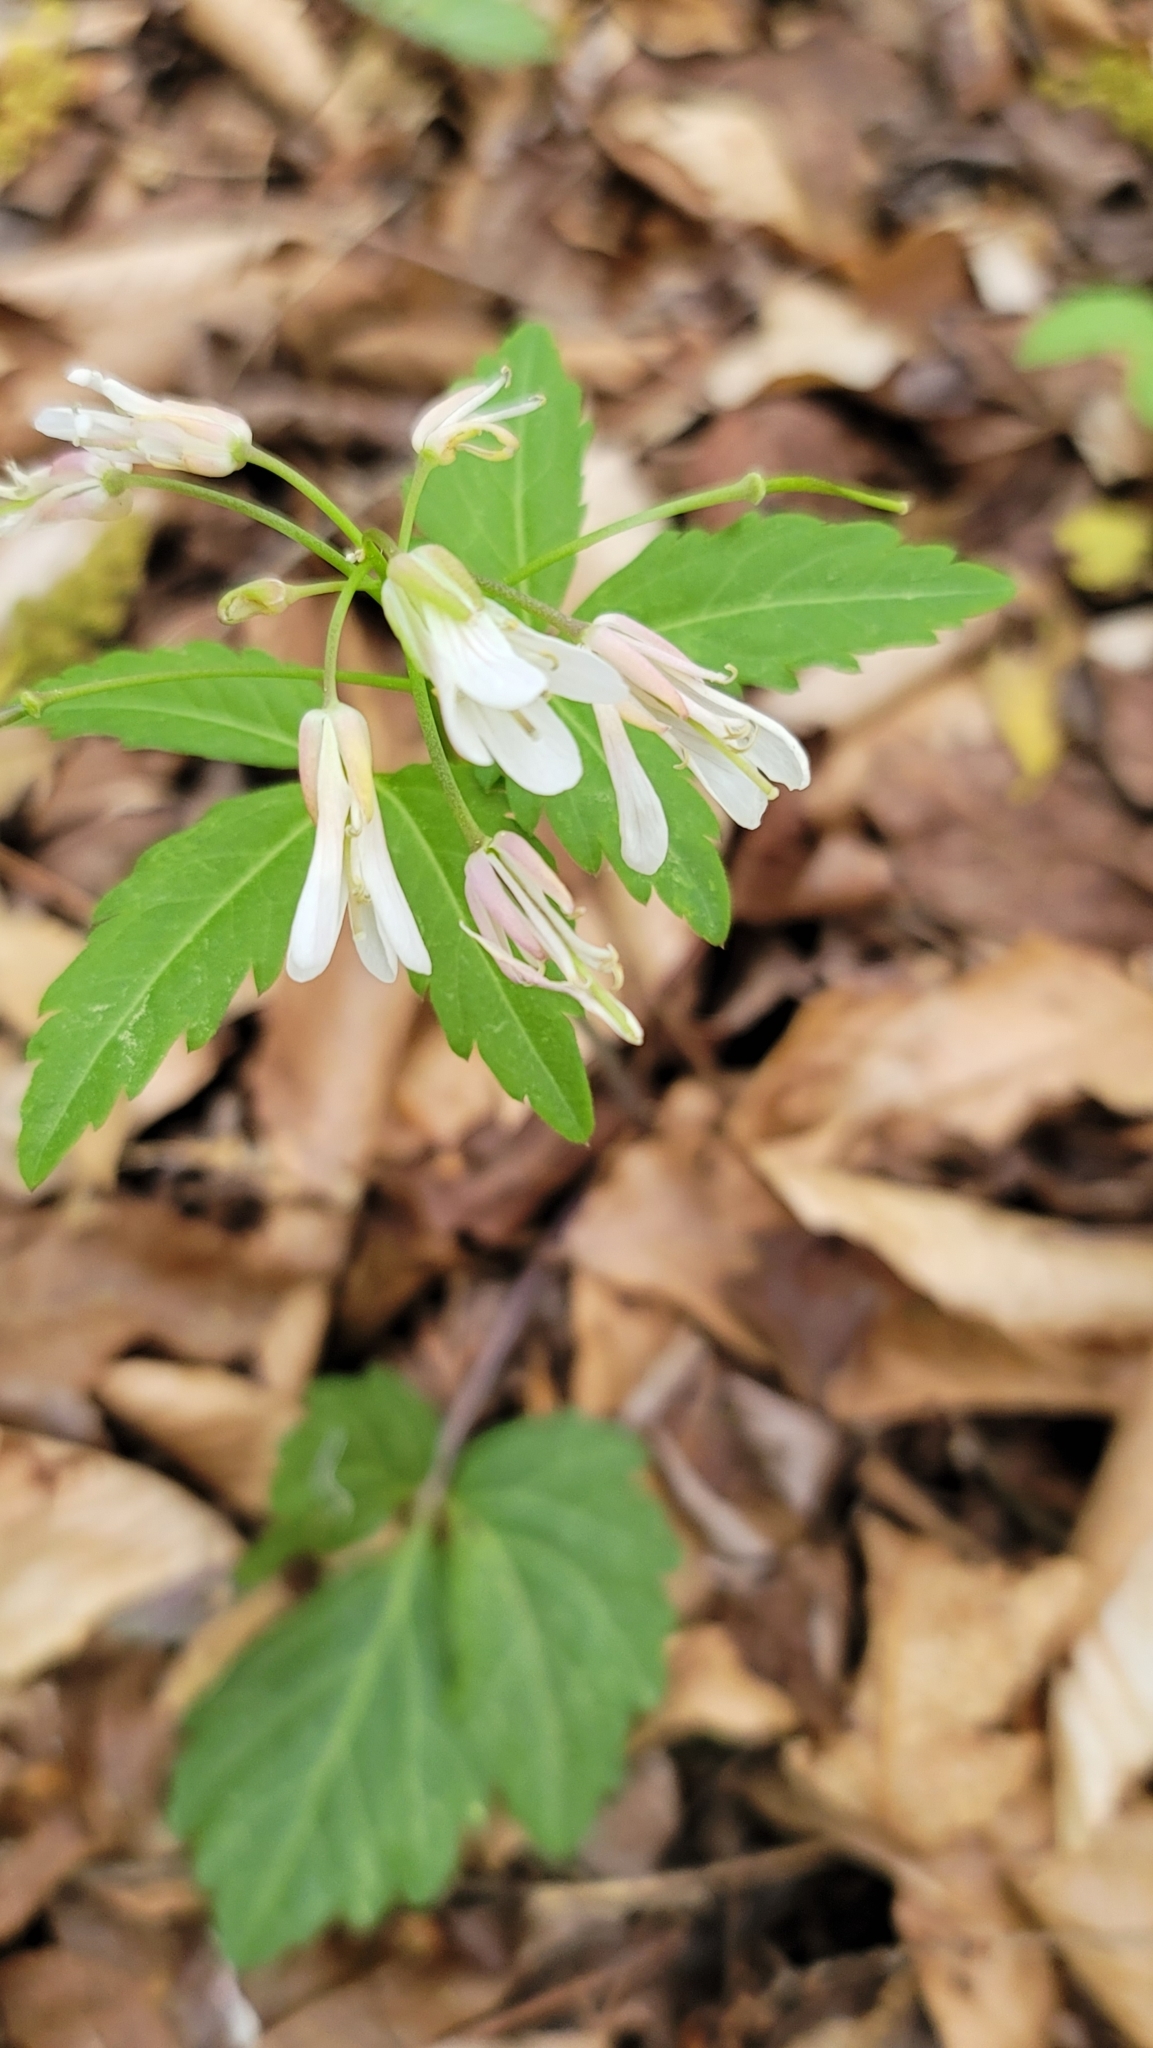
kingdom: Plantae
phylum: Tracheophyta
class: Magnoliopsida
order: Brassicales
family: Brassicaceae
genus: Cardamine
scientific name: Cardamine diphylla
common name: Broad-leaved toothwort
